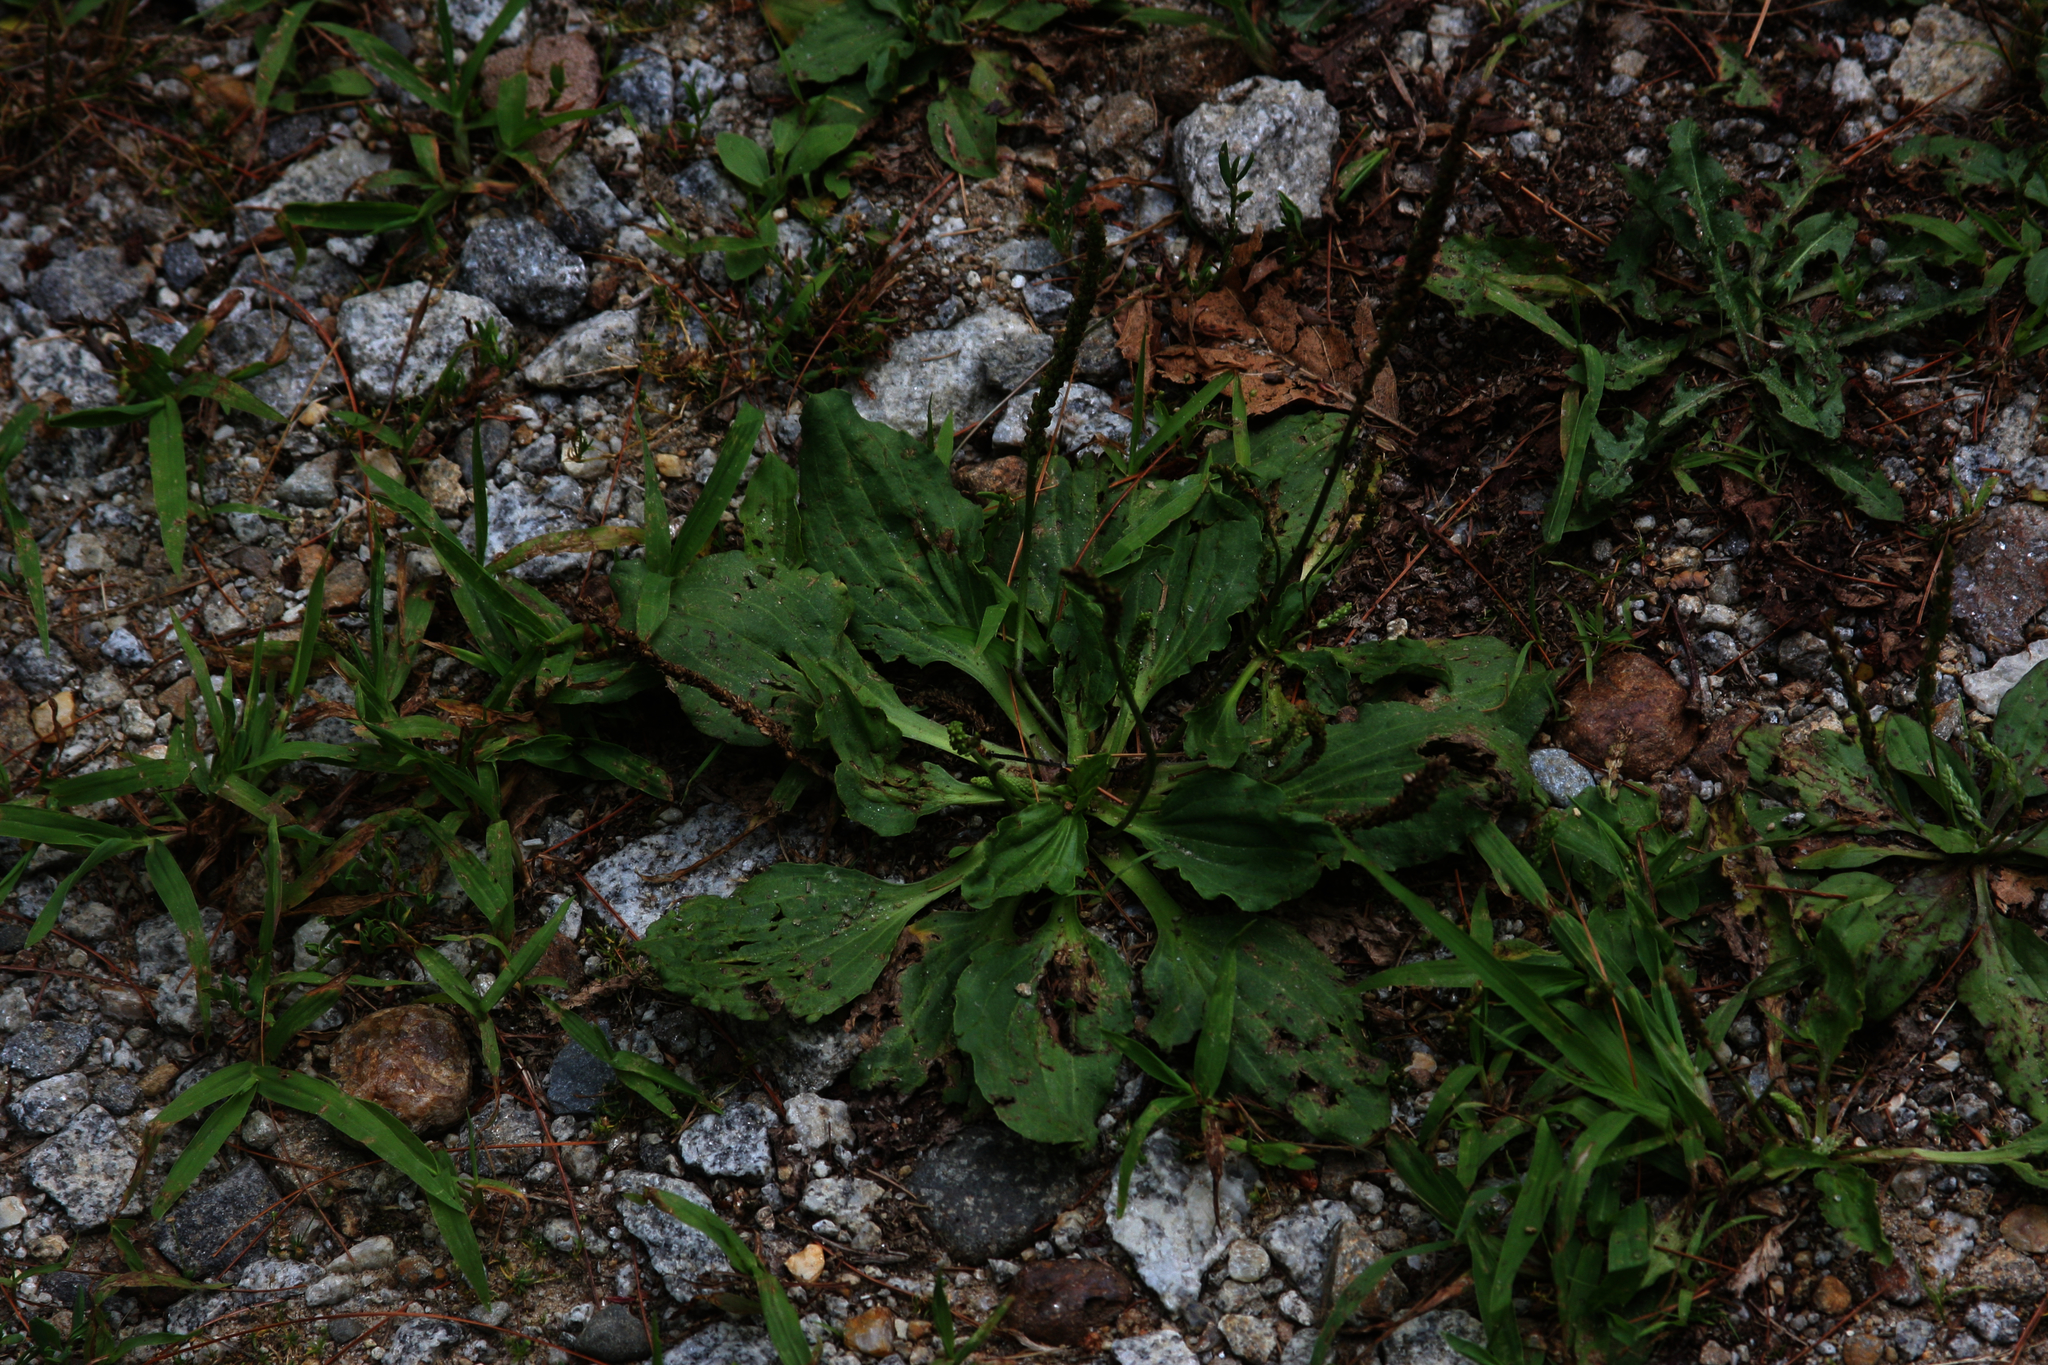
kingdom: Plantae
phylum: Tracheophyta
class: Magnoliopsida
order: Lamiales
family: Plantaginaceae
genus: Plantago
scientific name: Plantago major
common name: Common plantain
